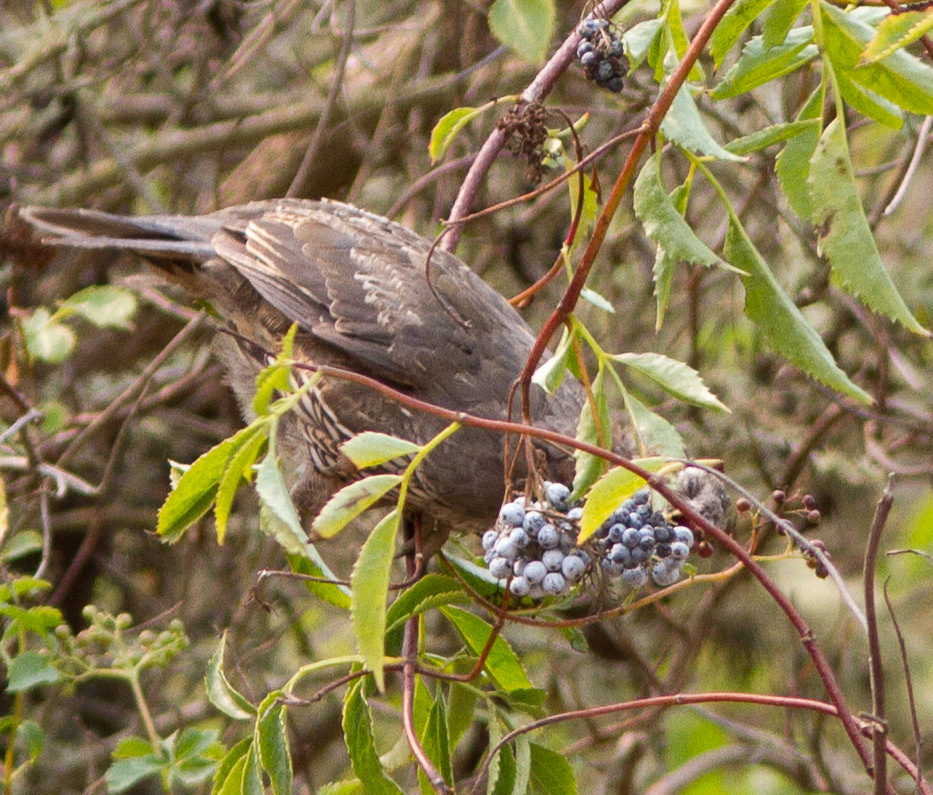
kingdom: Plantae
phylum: Tracheophyta
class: Magnoliopsida
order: Dipsacales
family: Viburnaceae
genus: Sambucus
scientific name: Sambucus cerulea
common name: Blue elder
